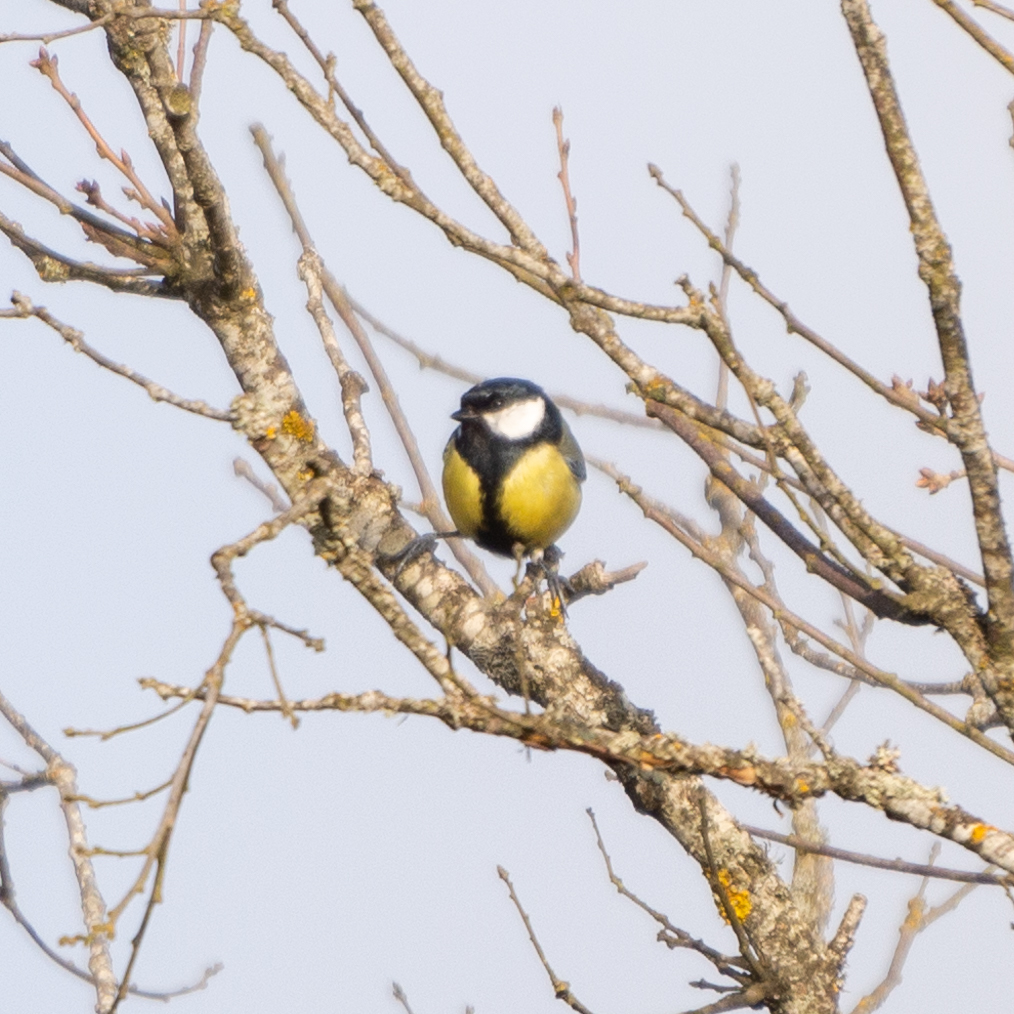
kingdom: Animalia
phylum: Chordata
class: Aves
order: Passeriformes
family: Paridae
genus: Parus
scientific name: Parus major
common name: Great tit
